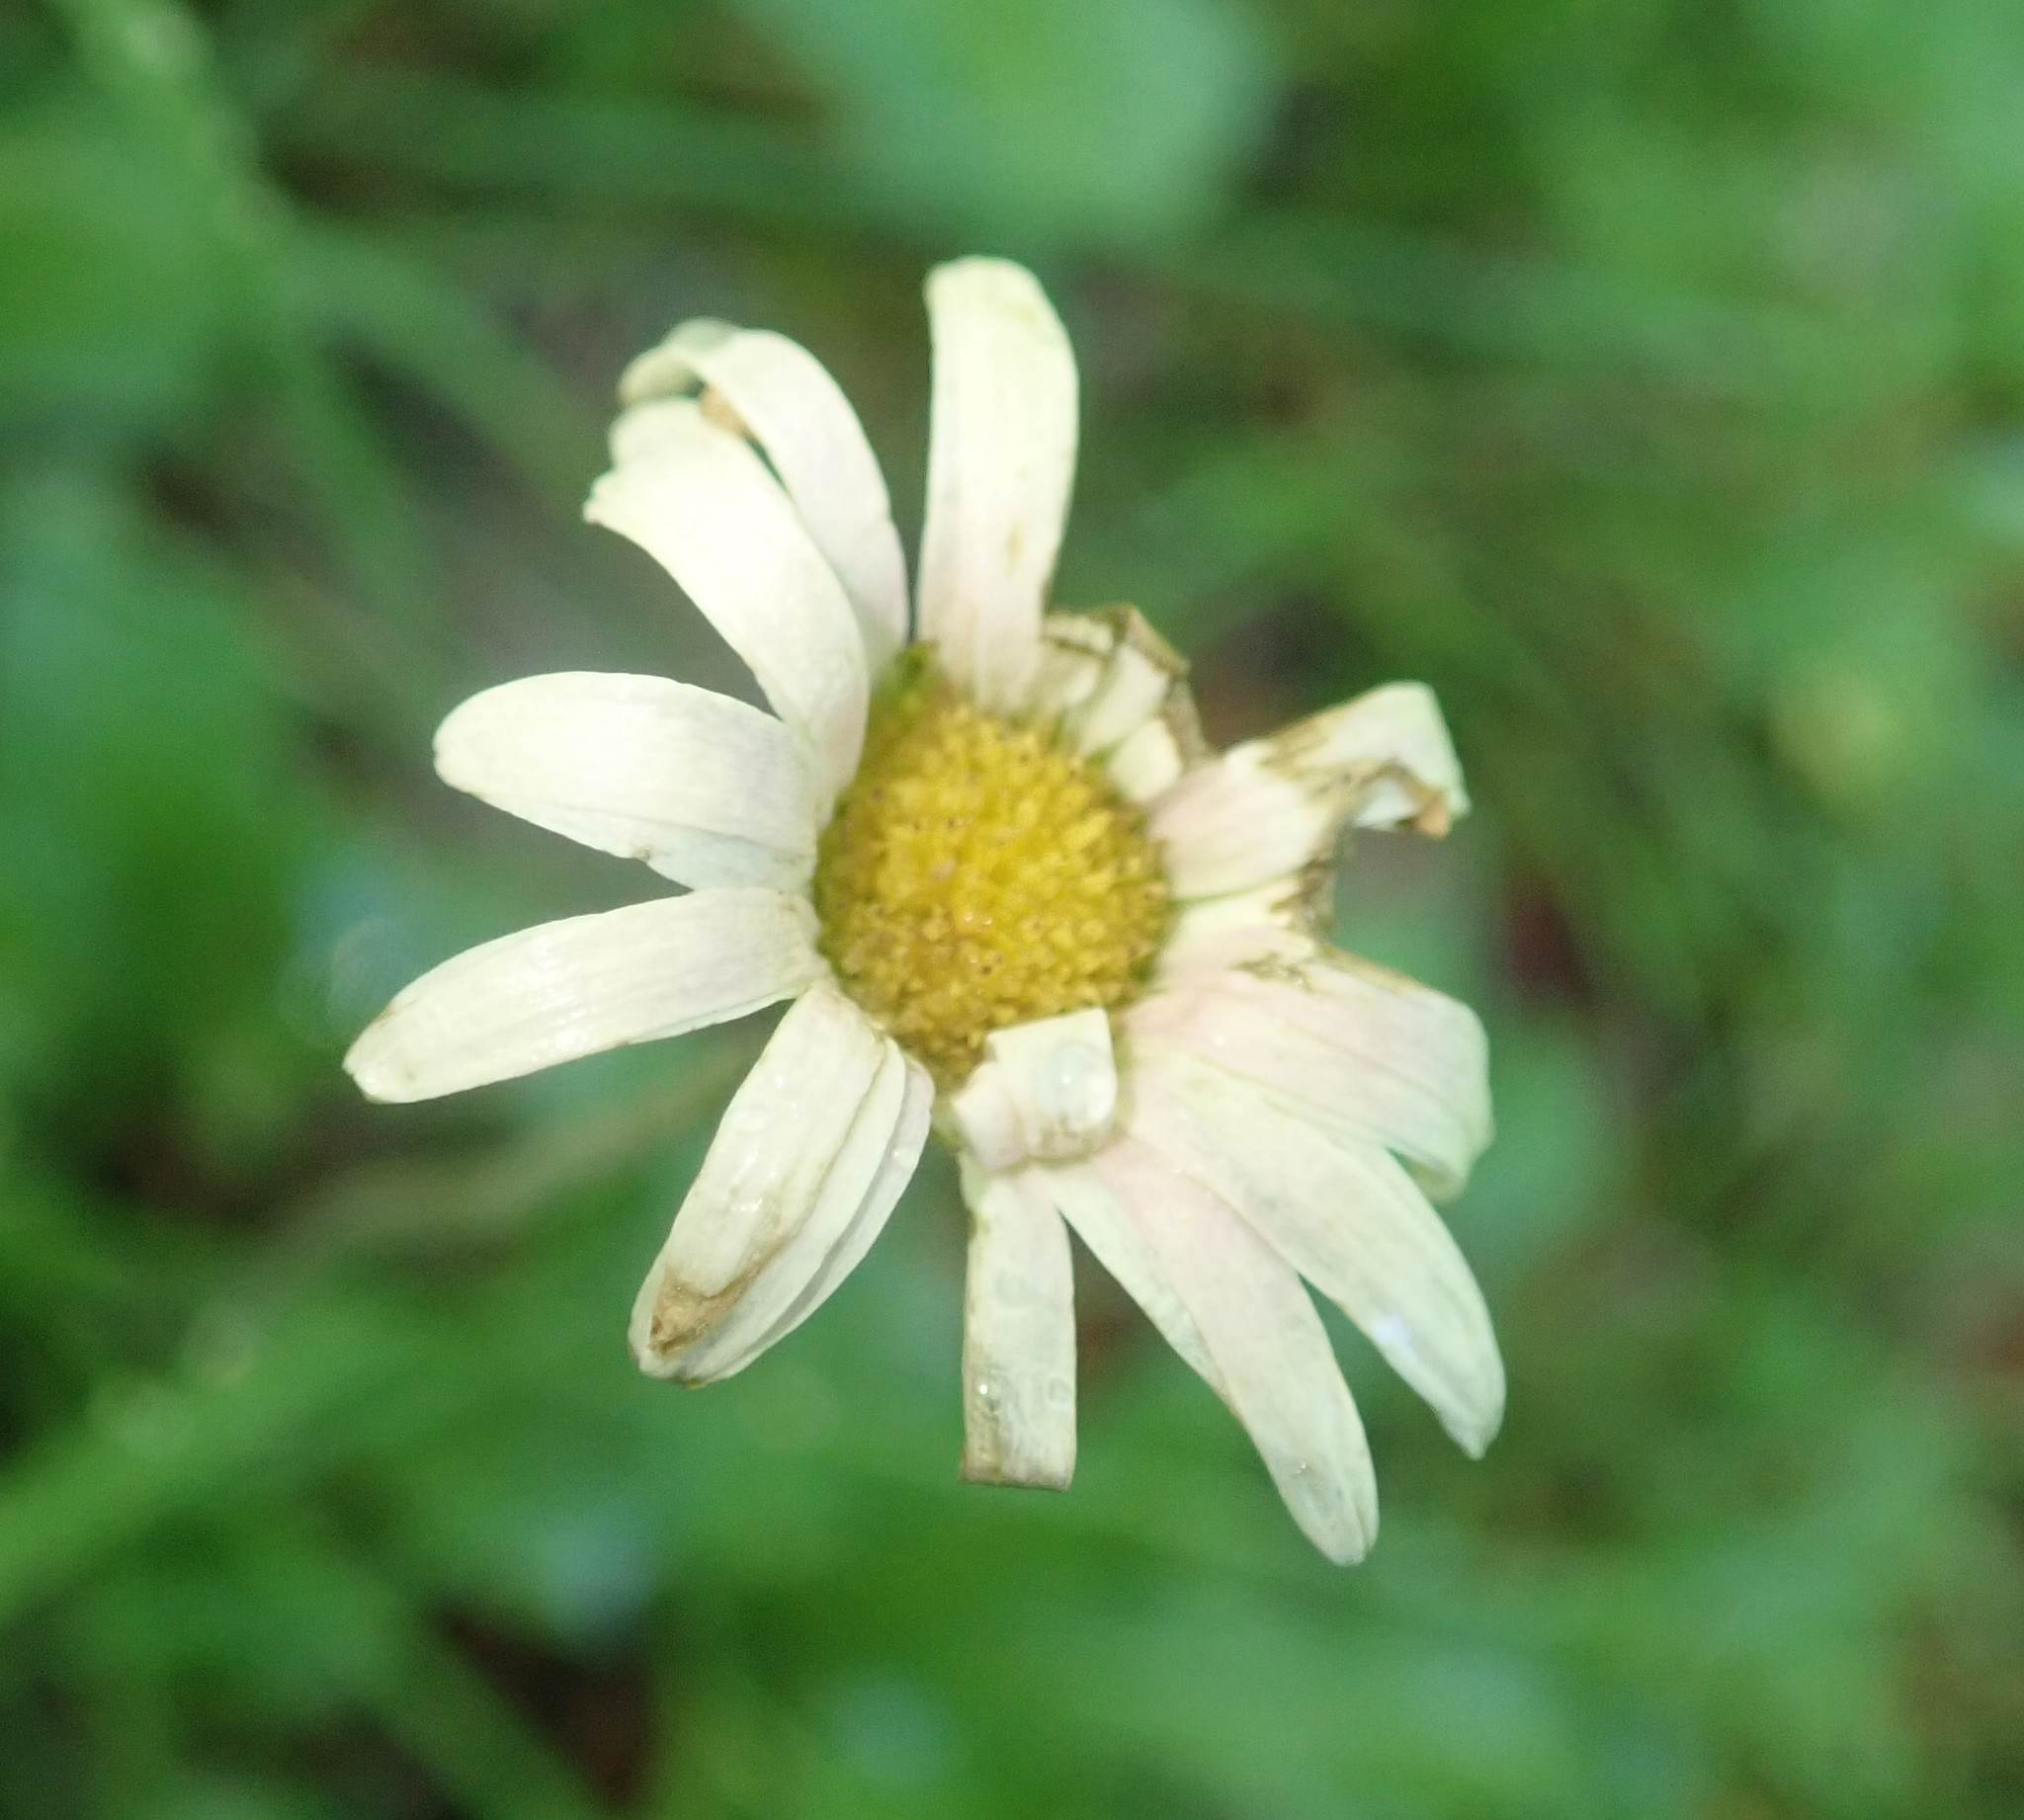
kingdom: Plantae
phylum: Tracheophyta
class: Magnoliopsida
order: Asterales
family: Asteraceae
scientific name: Asteraceae
